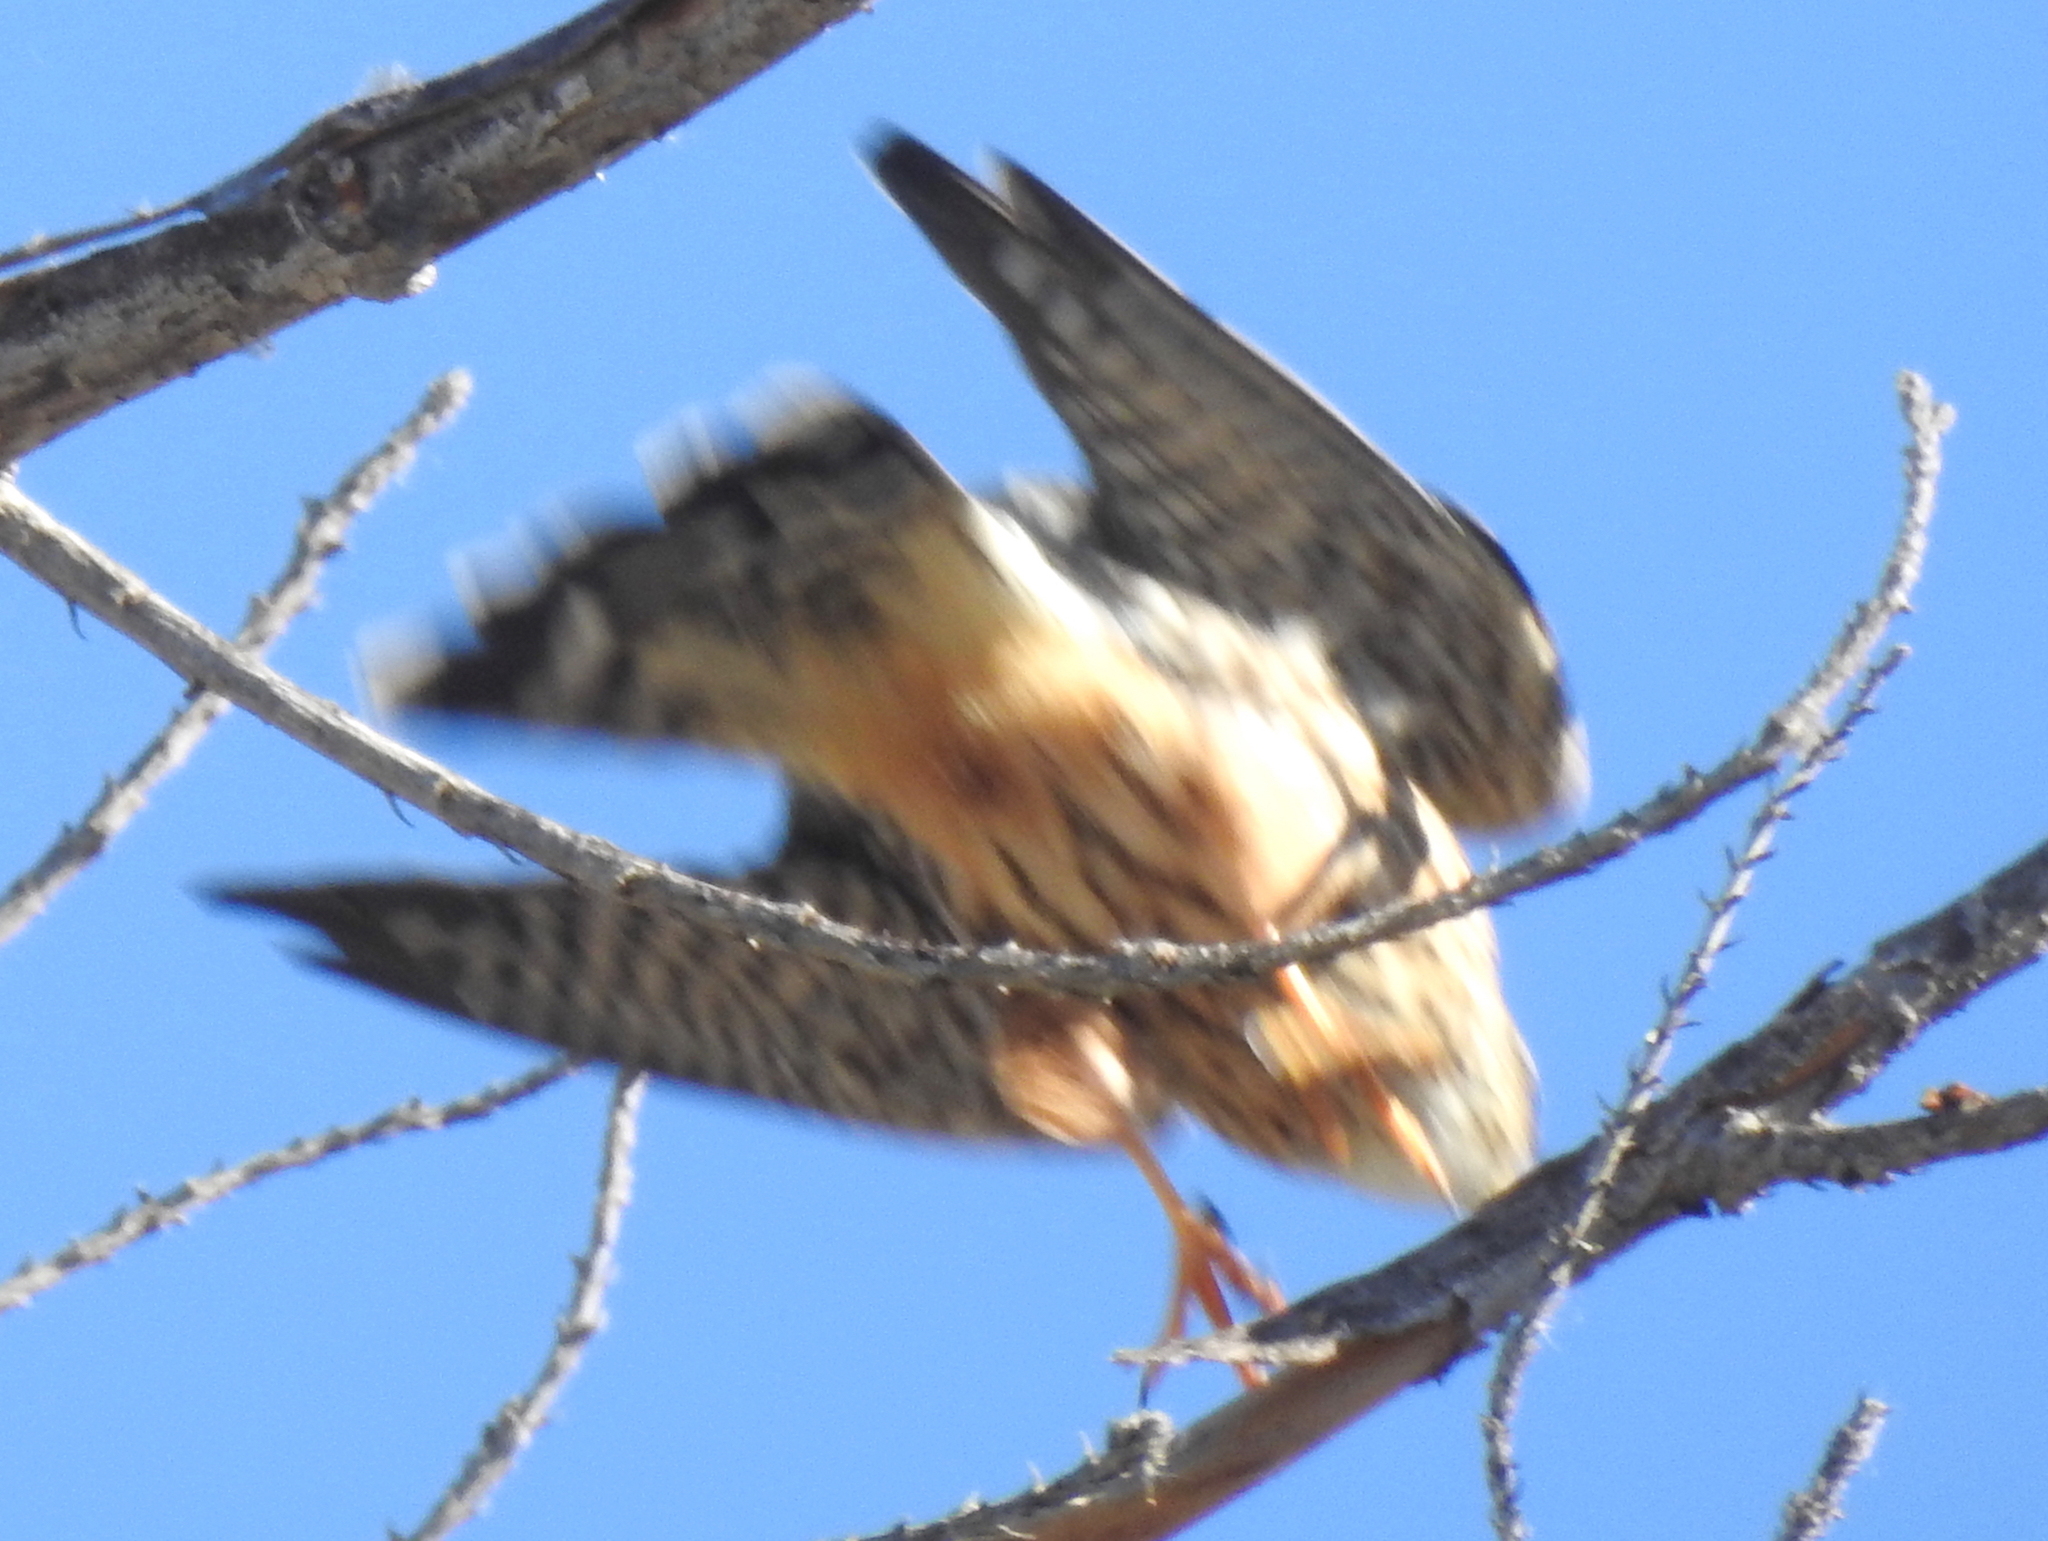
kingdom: Animalia
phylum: Chordata
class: Aves
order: Falconiformes
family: Falconidae
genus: Falco
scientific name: Falco columbarius
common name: Merlin
